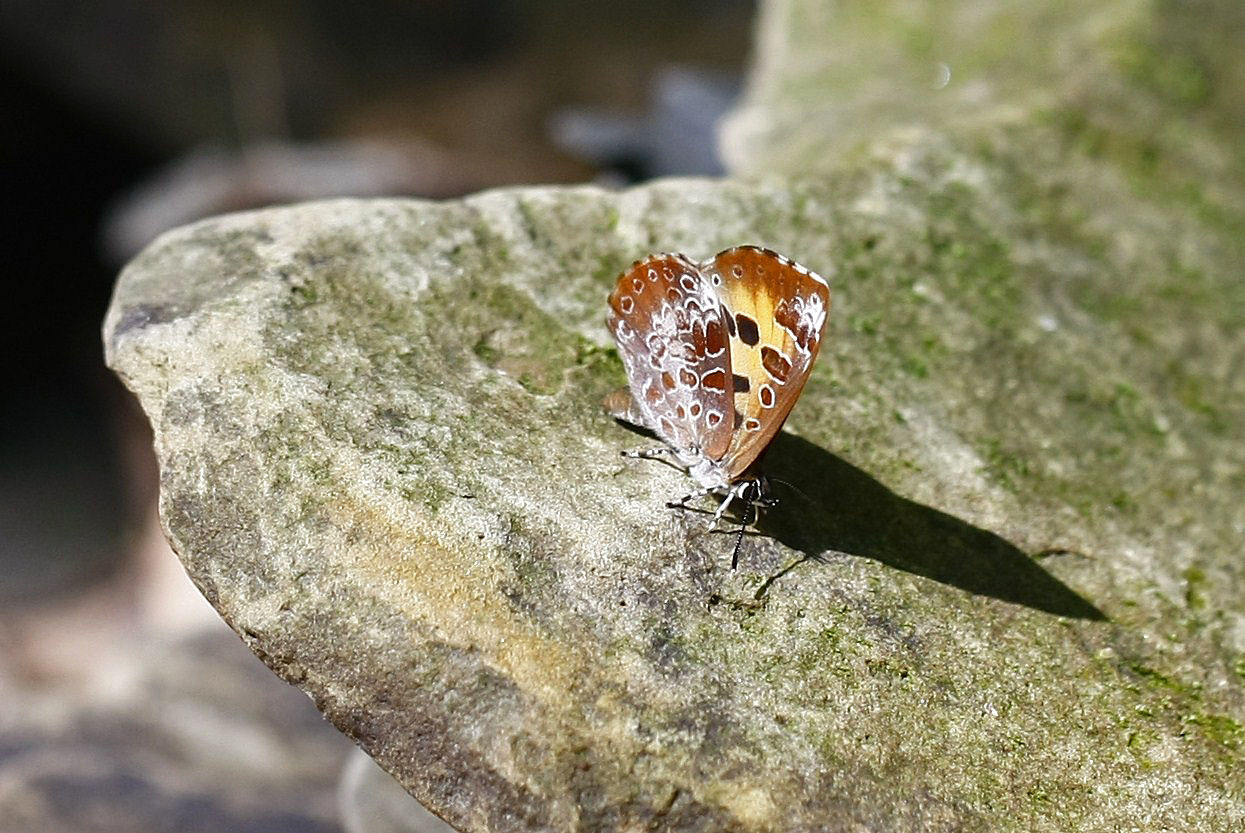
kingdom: Animalia
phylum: Arthropoda
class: Insecta
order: Lepidoptera
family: Lycaenidae
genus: Feniseca
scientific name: Feniseca tarquinius
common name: Harvester
